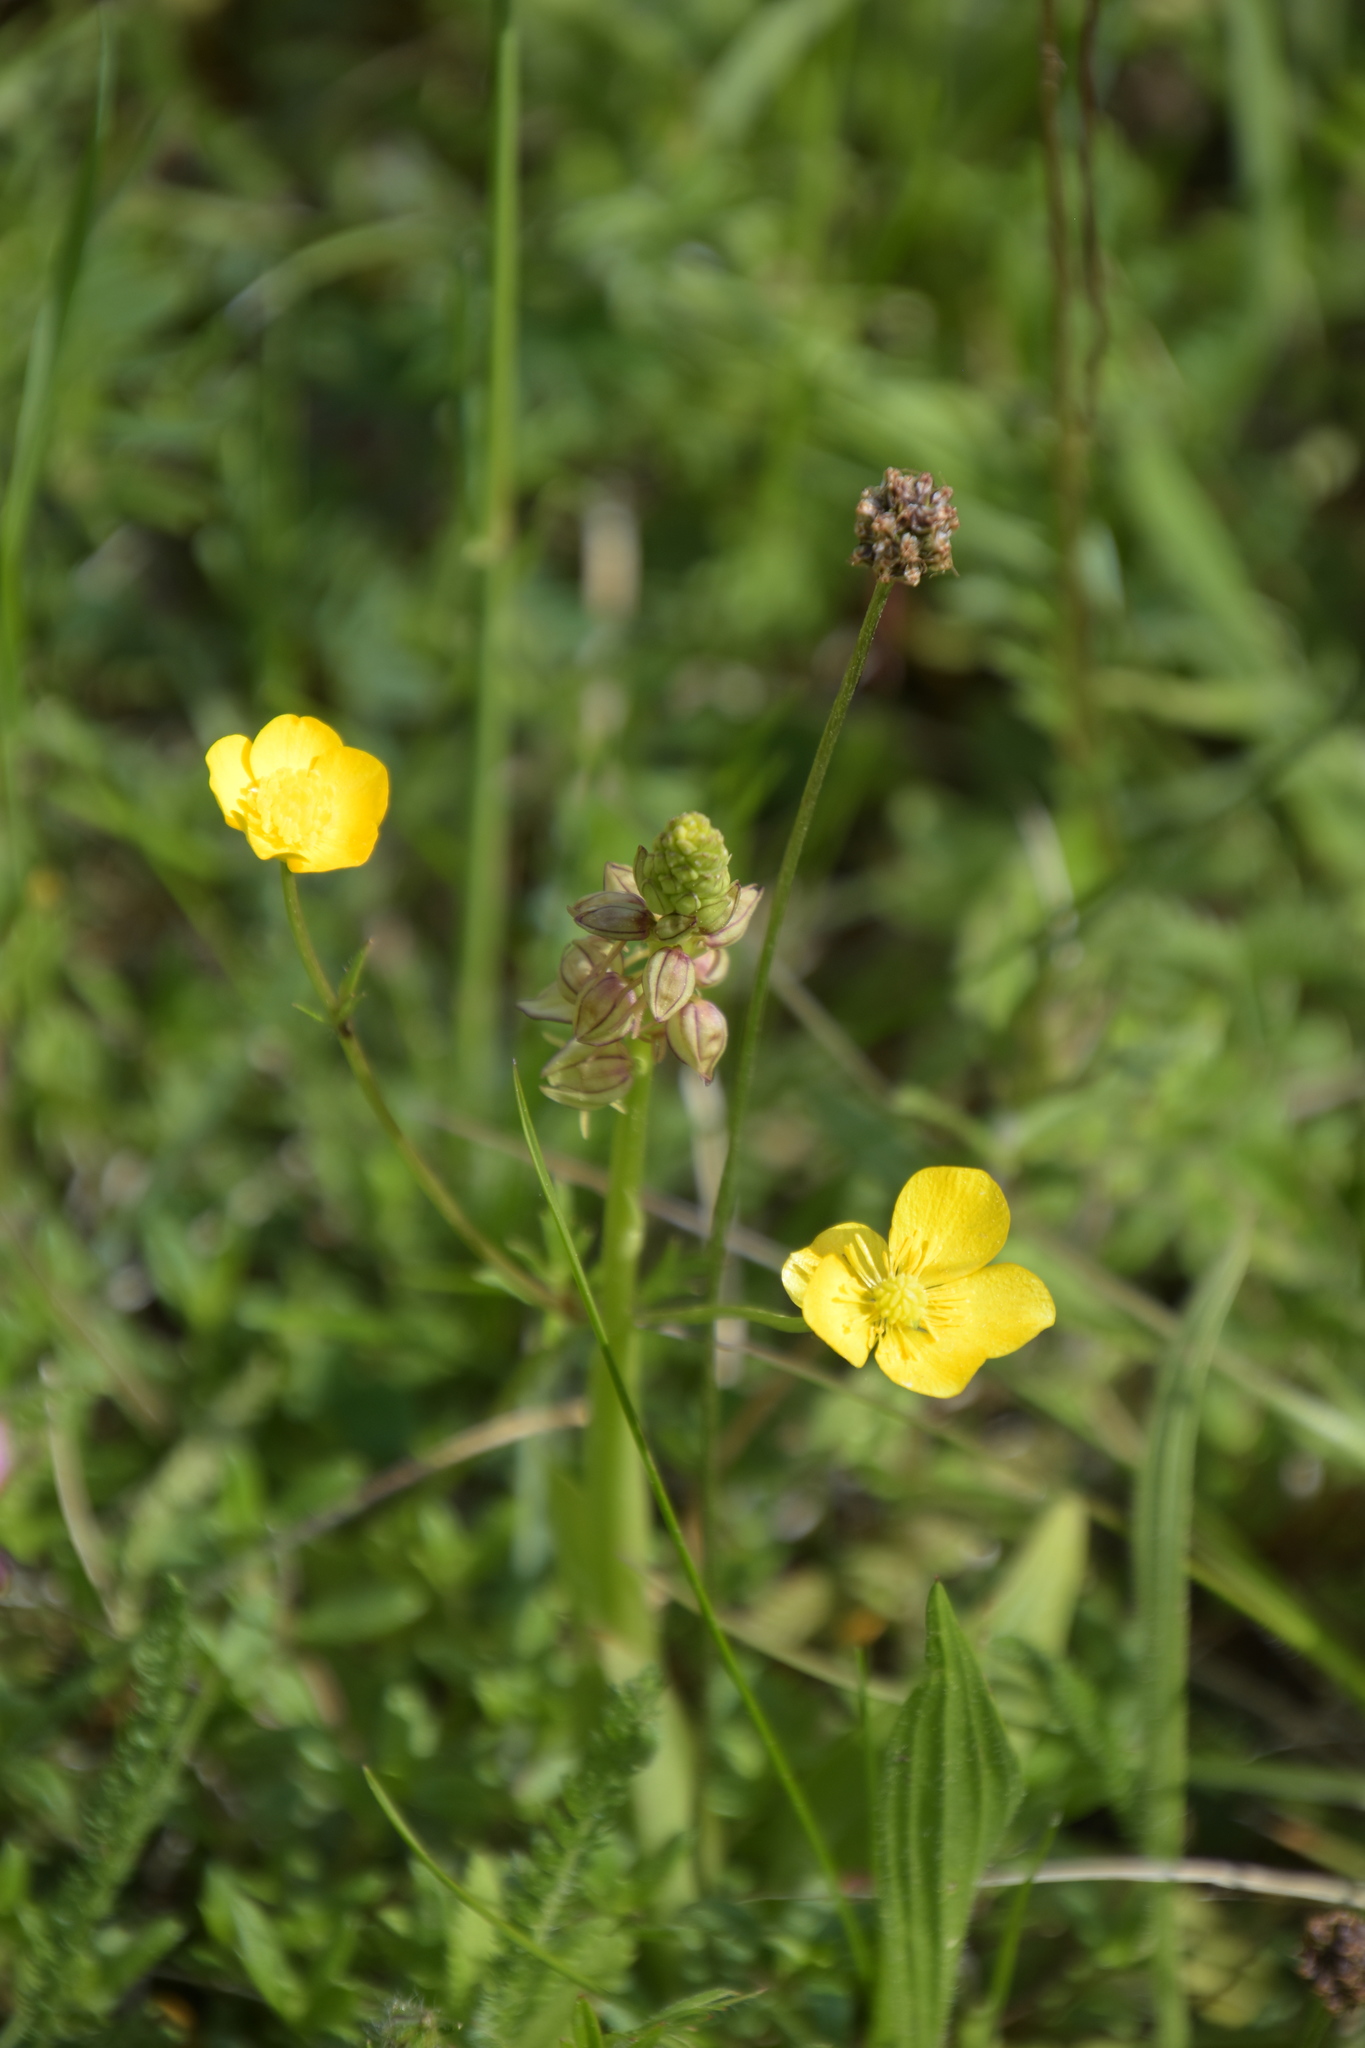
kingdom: Plantae
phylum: Tracheophyta
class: Liliopsida
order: Asparagales
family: Orchidaceae
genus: Orchis
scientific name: Orchis anthropophora
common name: Man orchid
